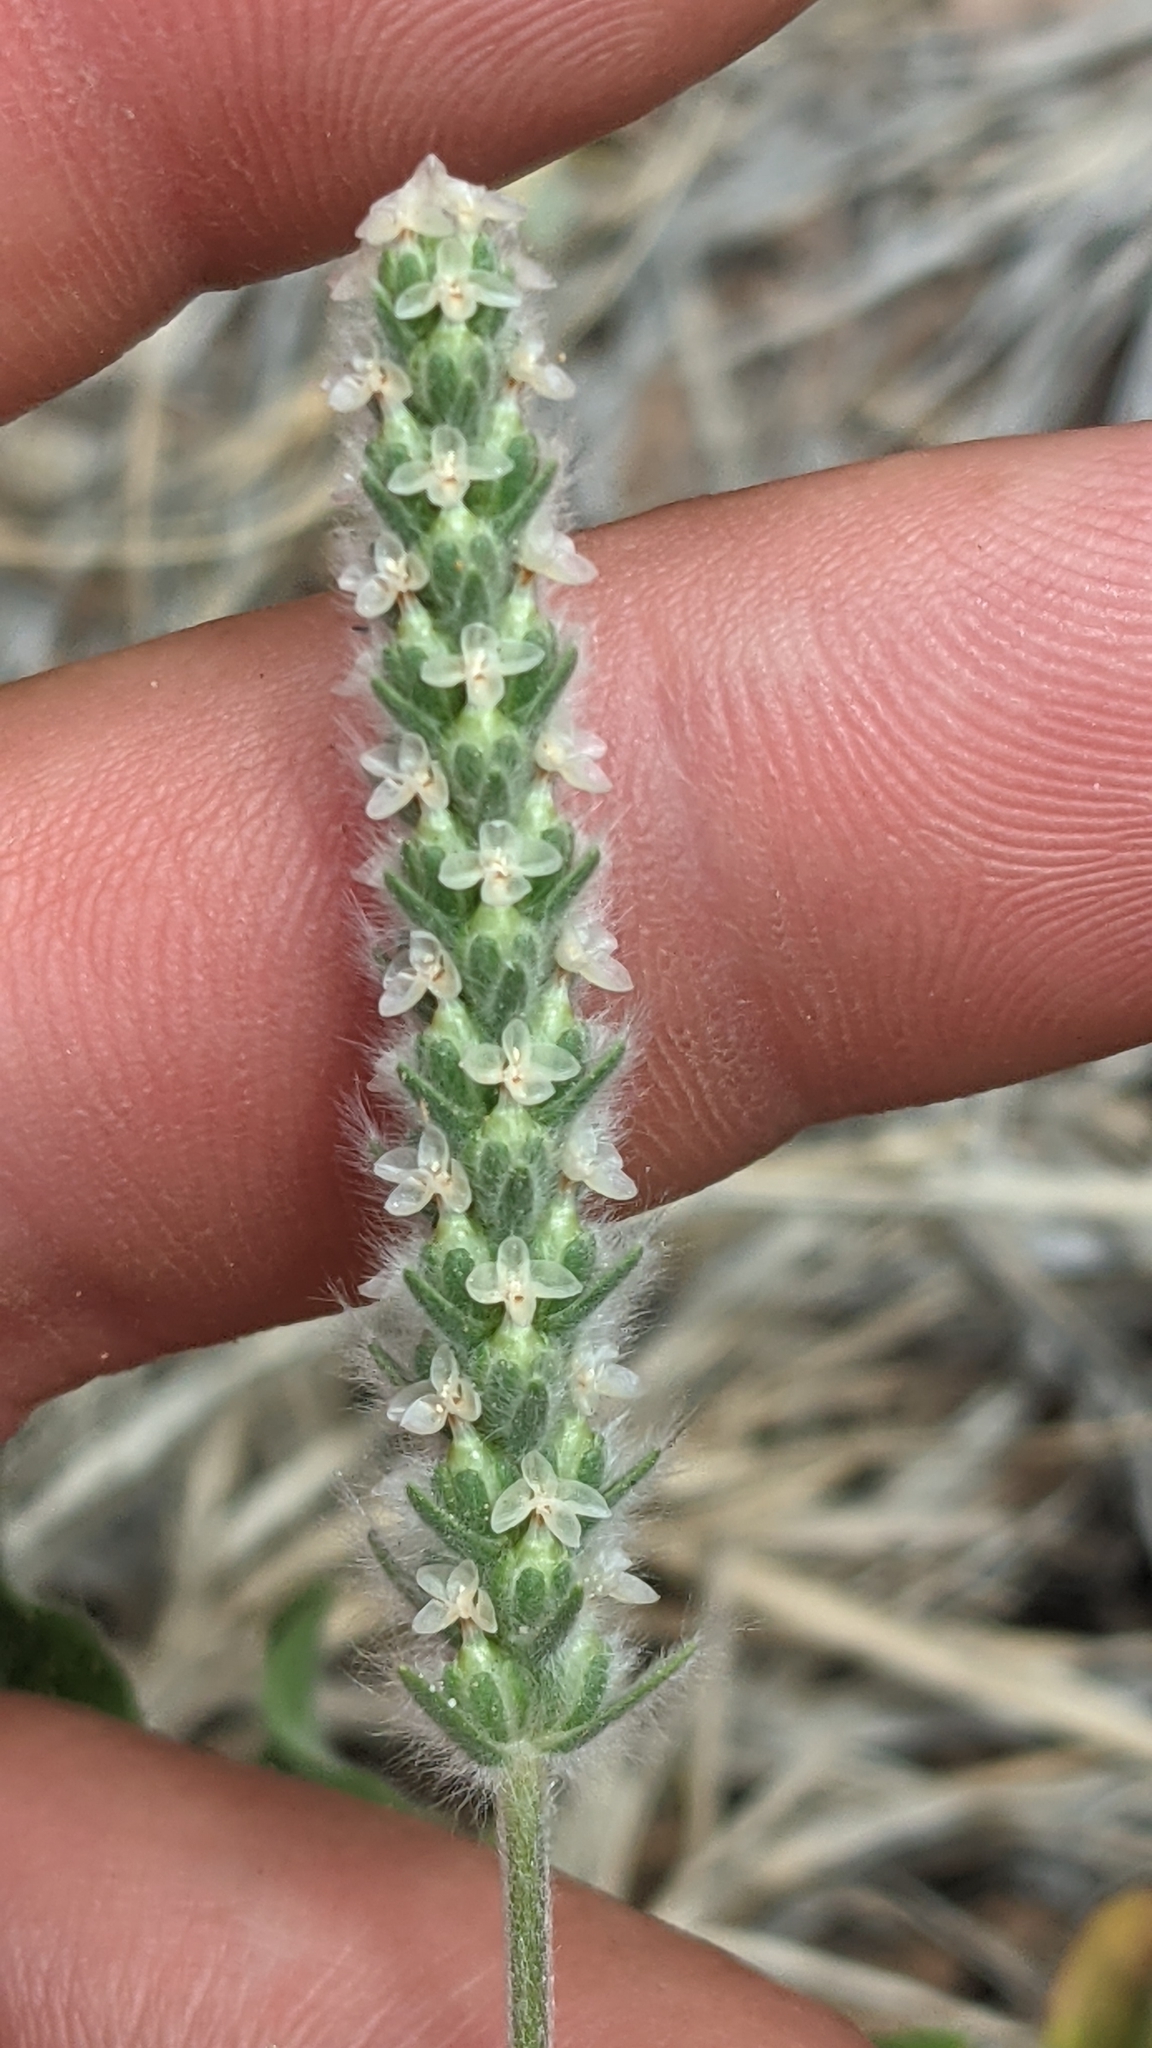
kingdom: Plantae
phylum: Tracheophyta
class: Magnoliopsida
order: Lamiales
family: Plantaginaceae
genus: Plantago
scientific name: Plantago patagonica
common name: Patagonia indian-wheat
